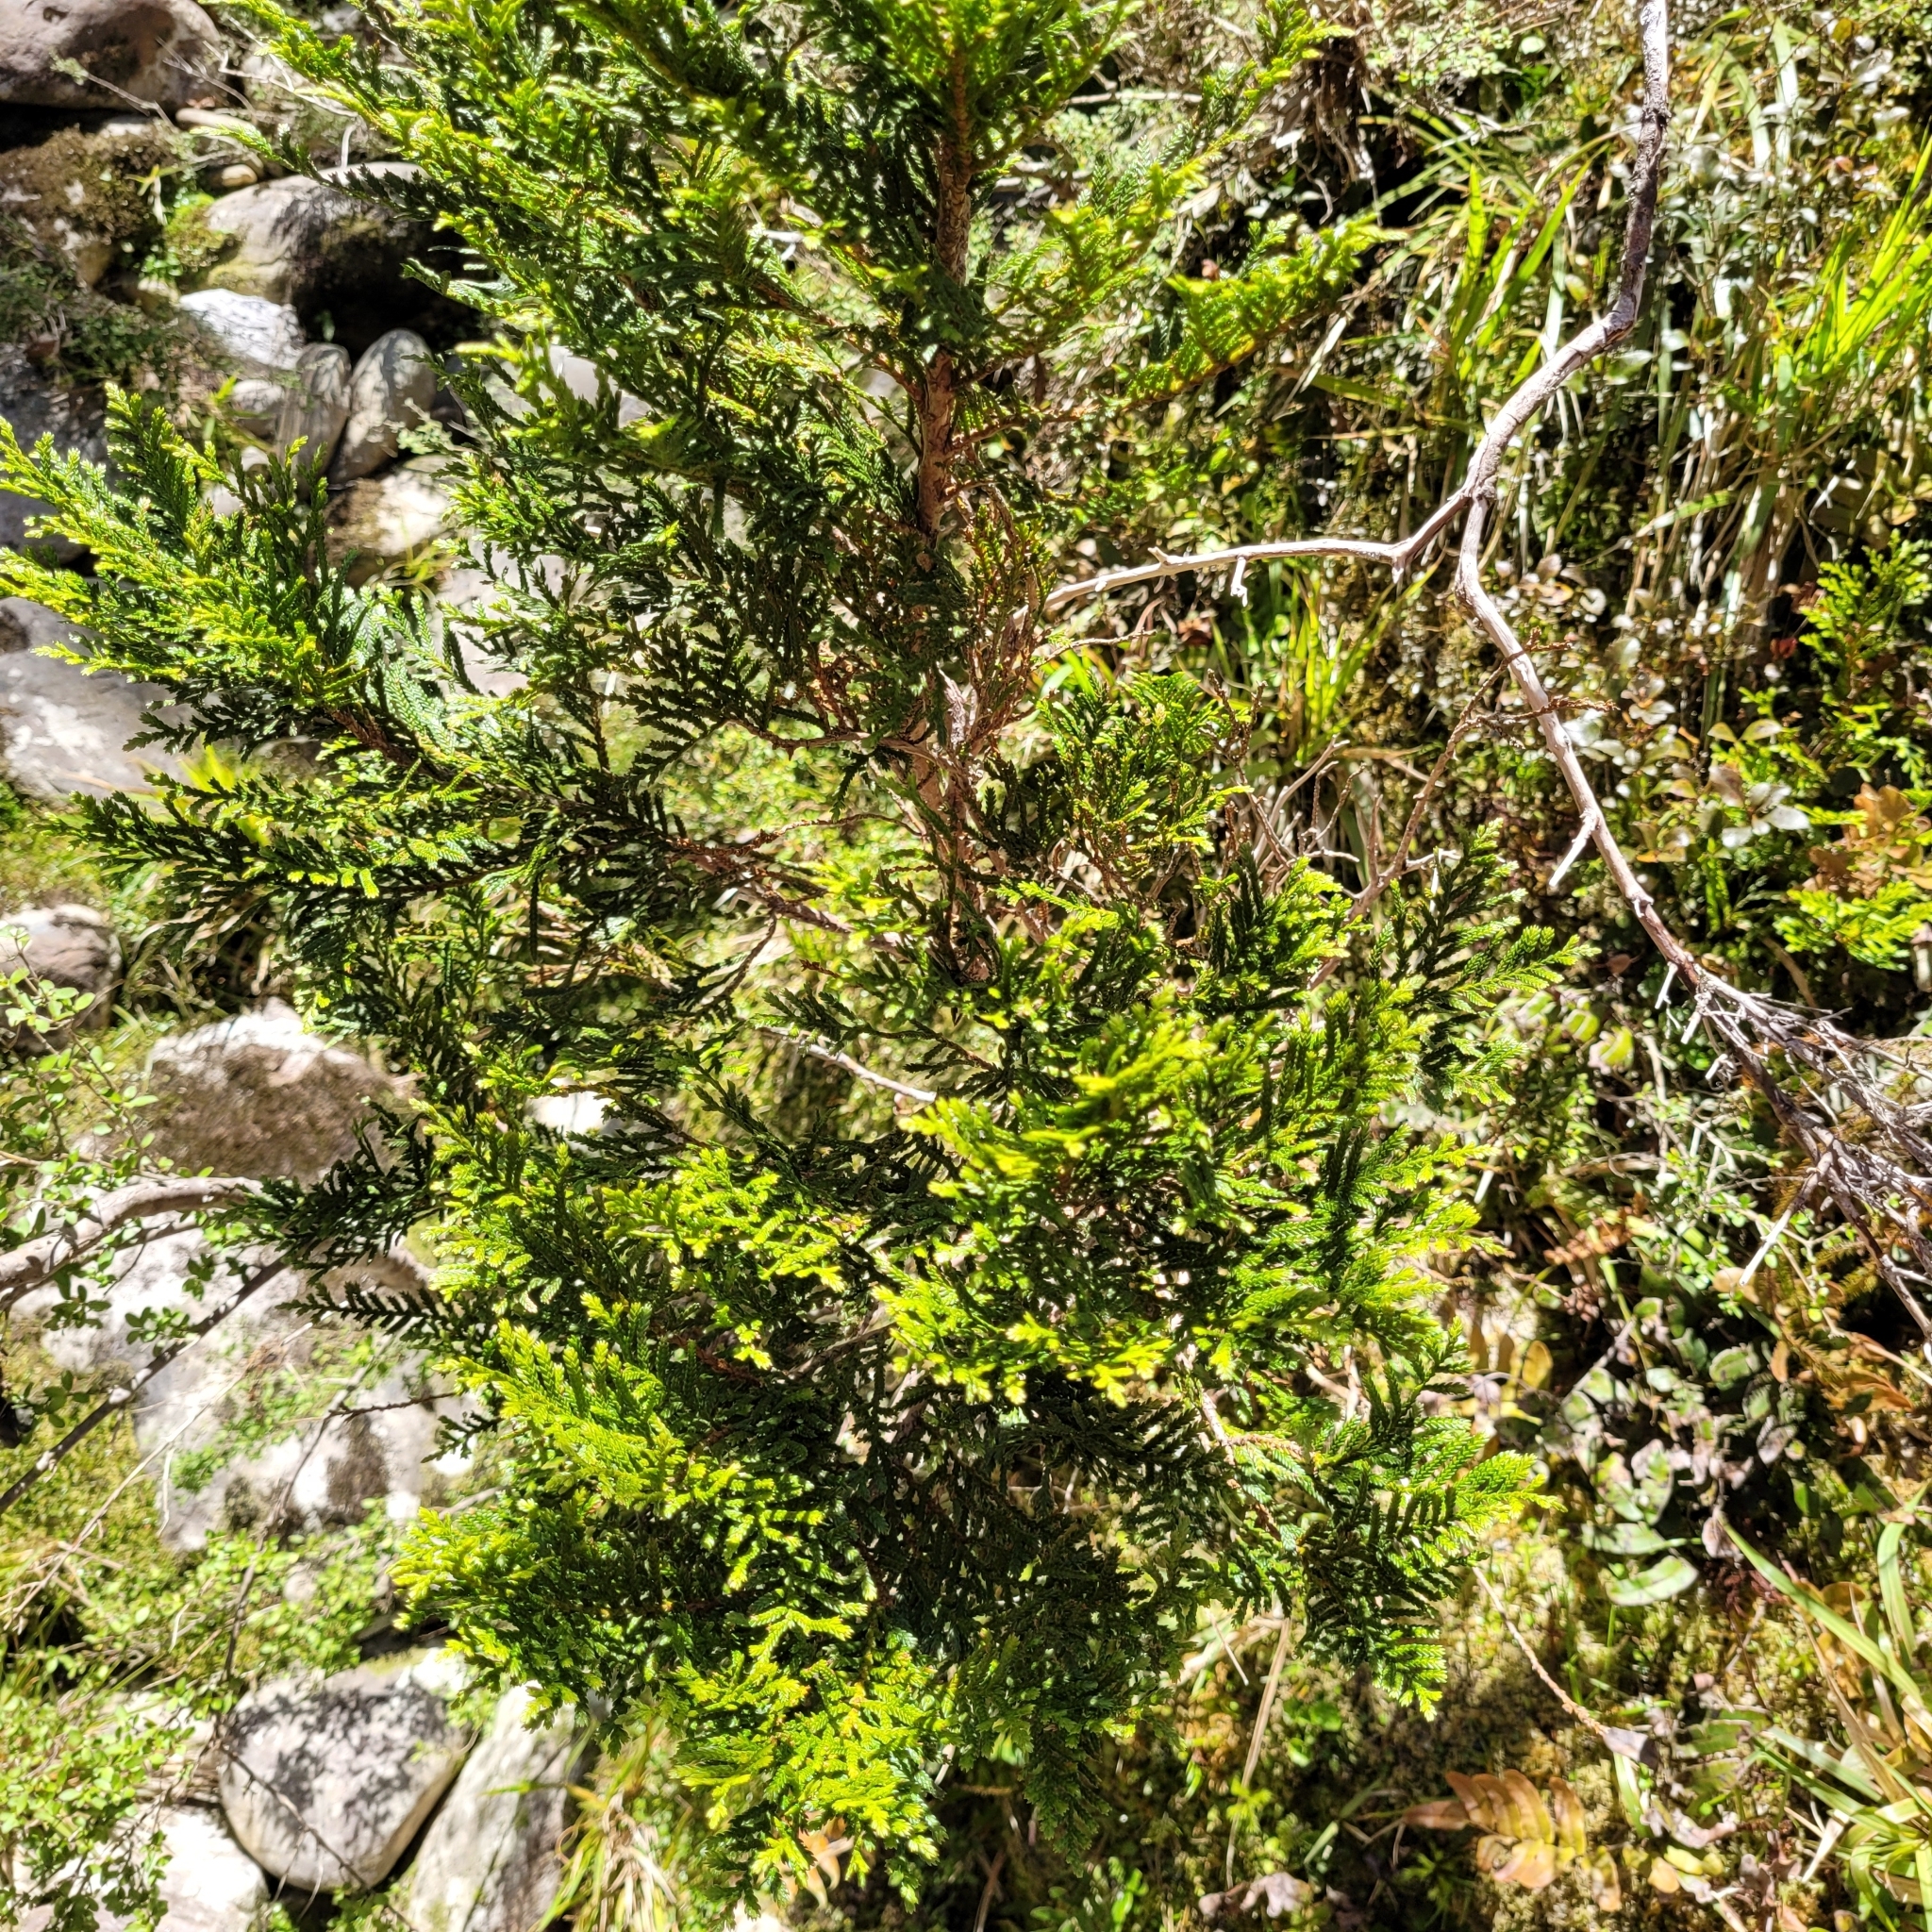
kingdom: Plantae
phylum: Tracheophyta
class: Pinopsida
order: Pinales
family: Cupressaceae
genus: Libocedrus
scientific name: Libocedrus bidwillii
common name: Cedar
